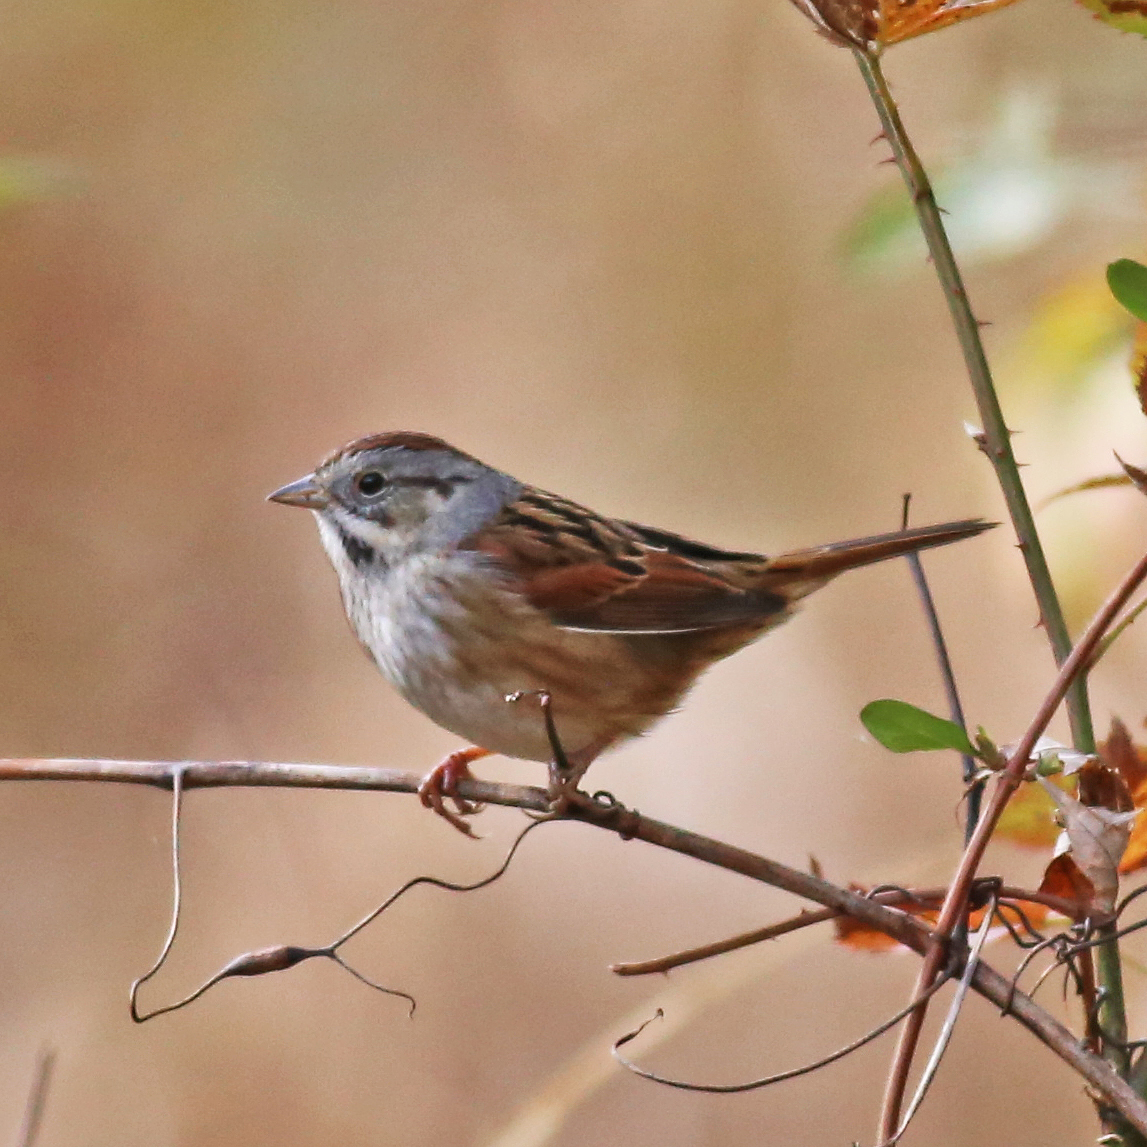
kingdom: Animalia
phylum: Chordata
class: Aves
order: Passeriformes
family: Passerellidae
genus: Melospiza
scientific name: Melospiza georgiana
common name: Swamp sparrow
